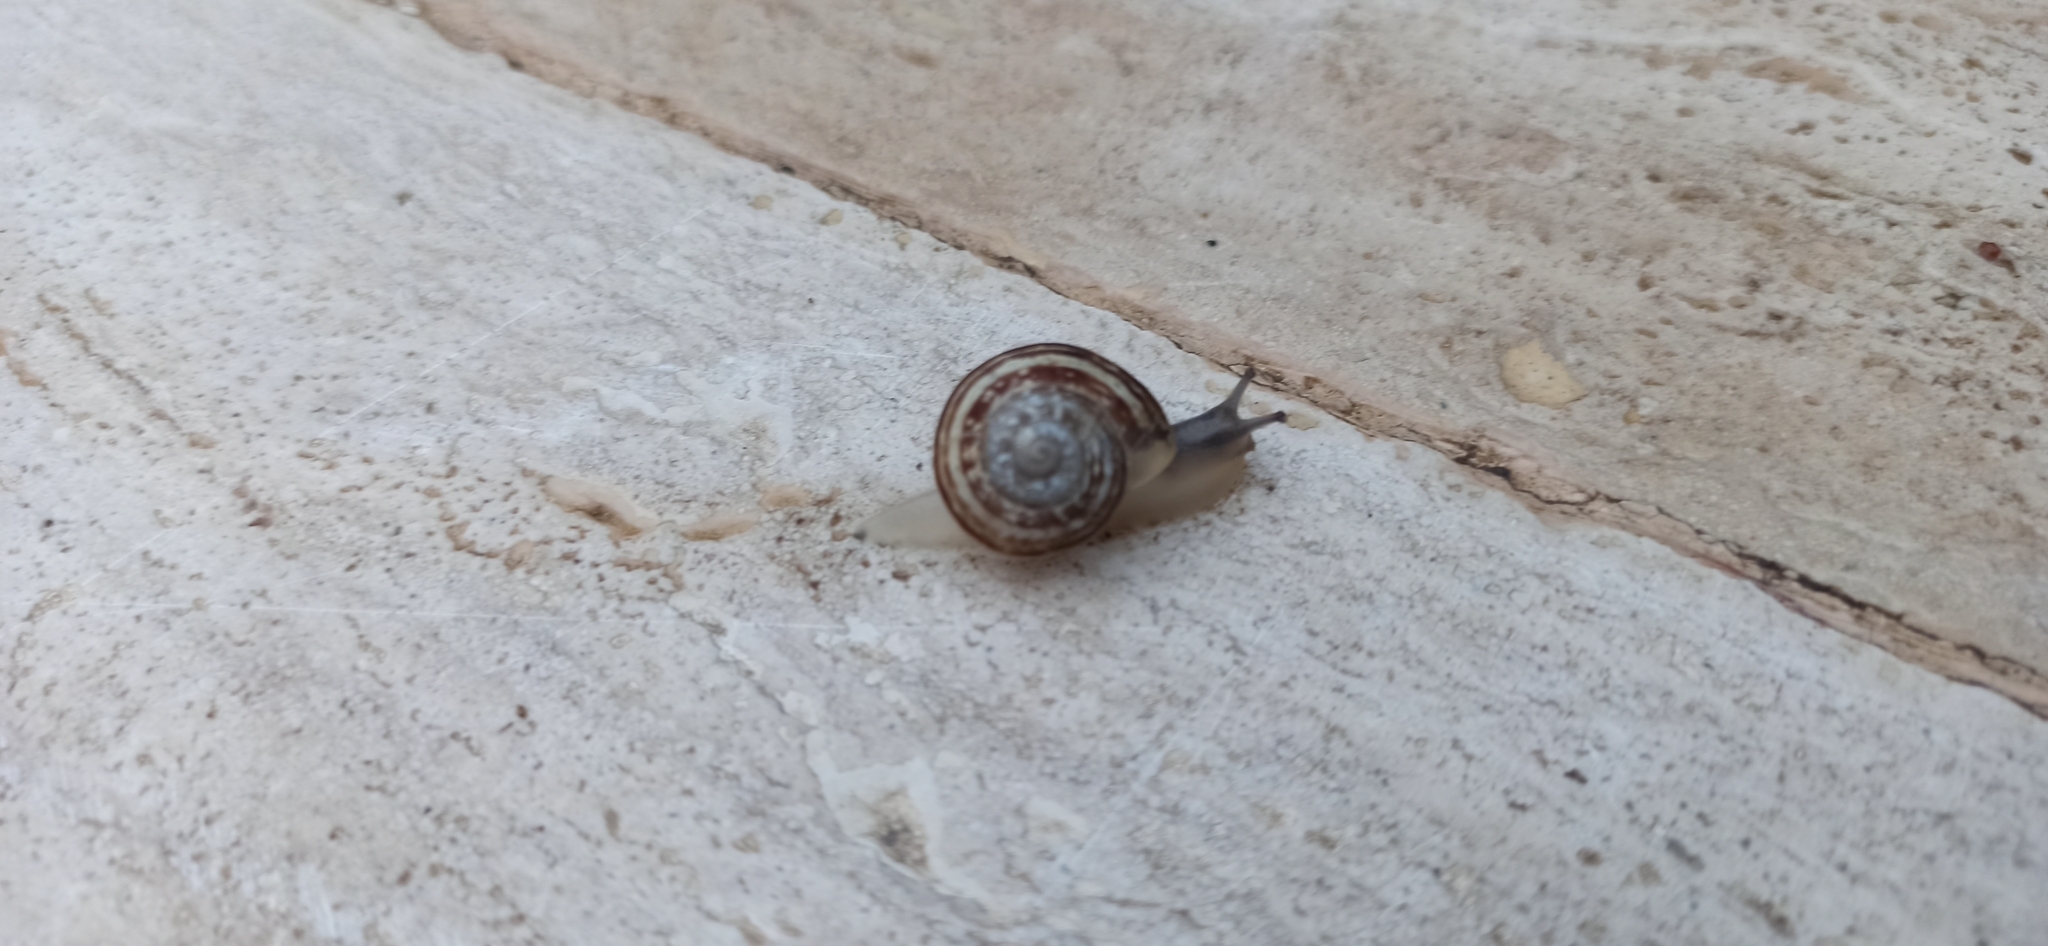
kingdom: Animalia
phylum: Mollusca
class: Gastropoda
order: Stylommatophora
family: Helicidae
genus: Eobania
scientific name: Eobania vermiculata
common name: Chocolateband snail
